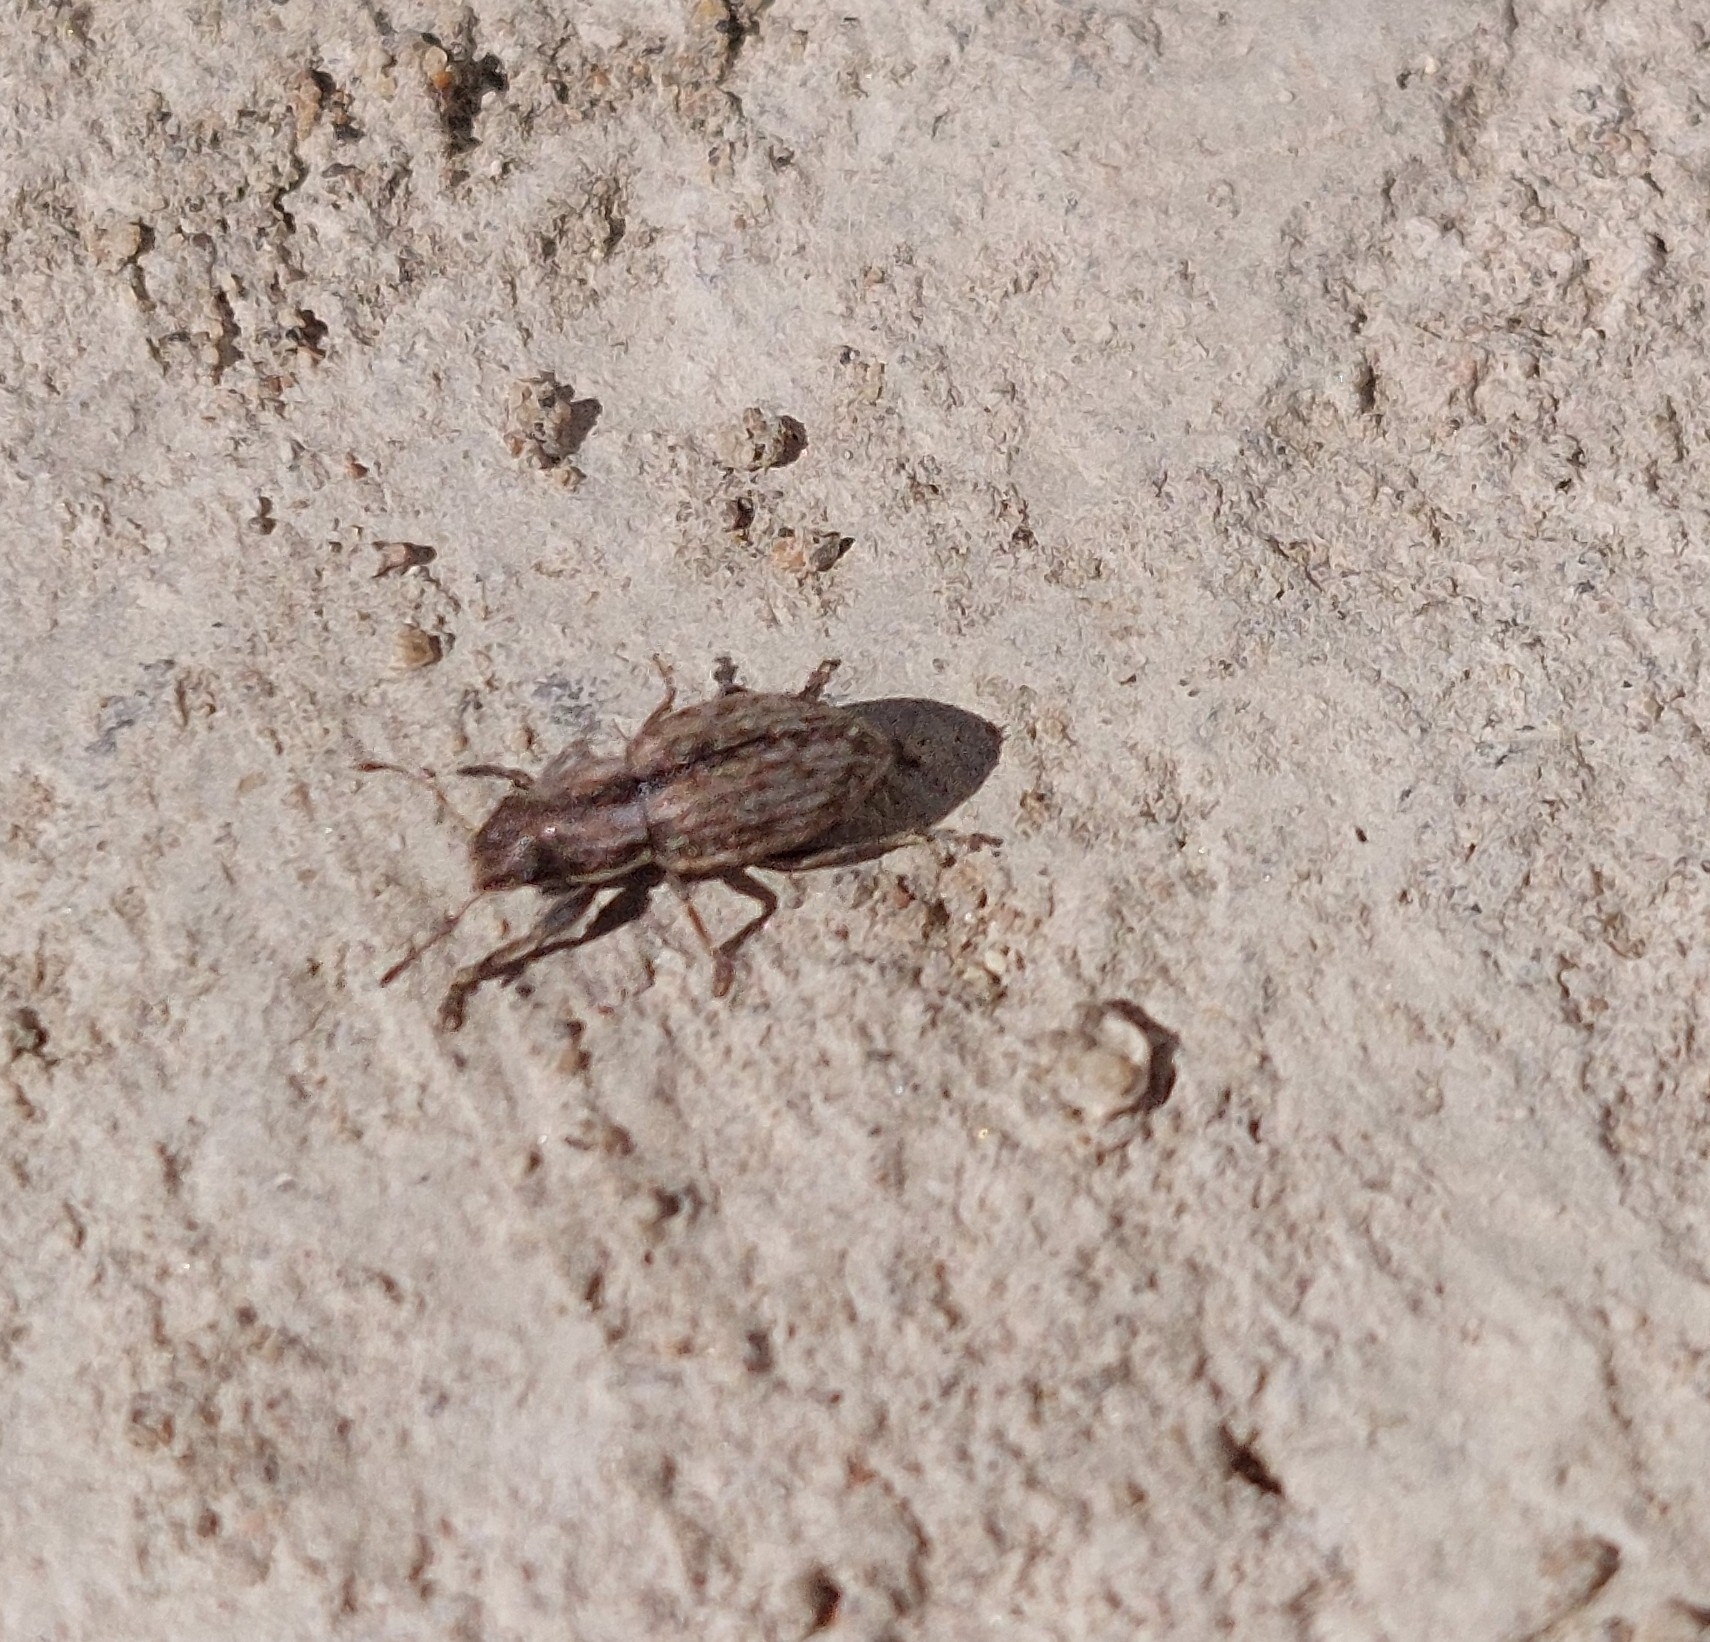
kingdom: Animalia
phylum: Arthropoda
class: Insecta
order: Coleoptera
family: Curculionidae
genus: Atrichonotus
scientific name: Atrichonotus taeniatulus
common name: Small lucerne weevil
